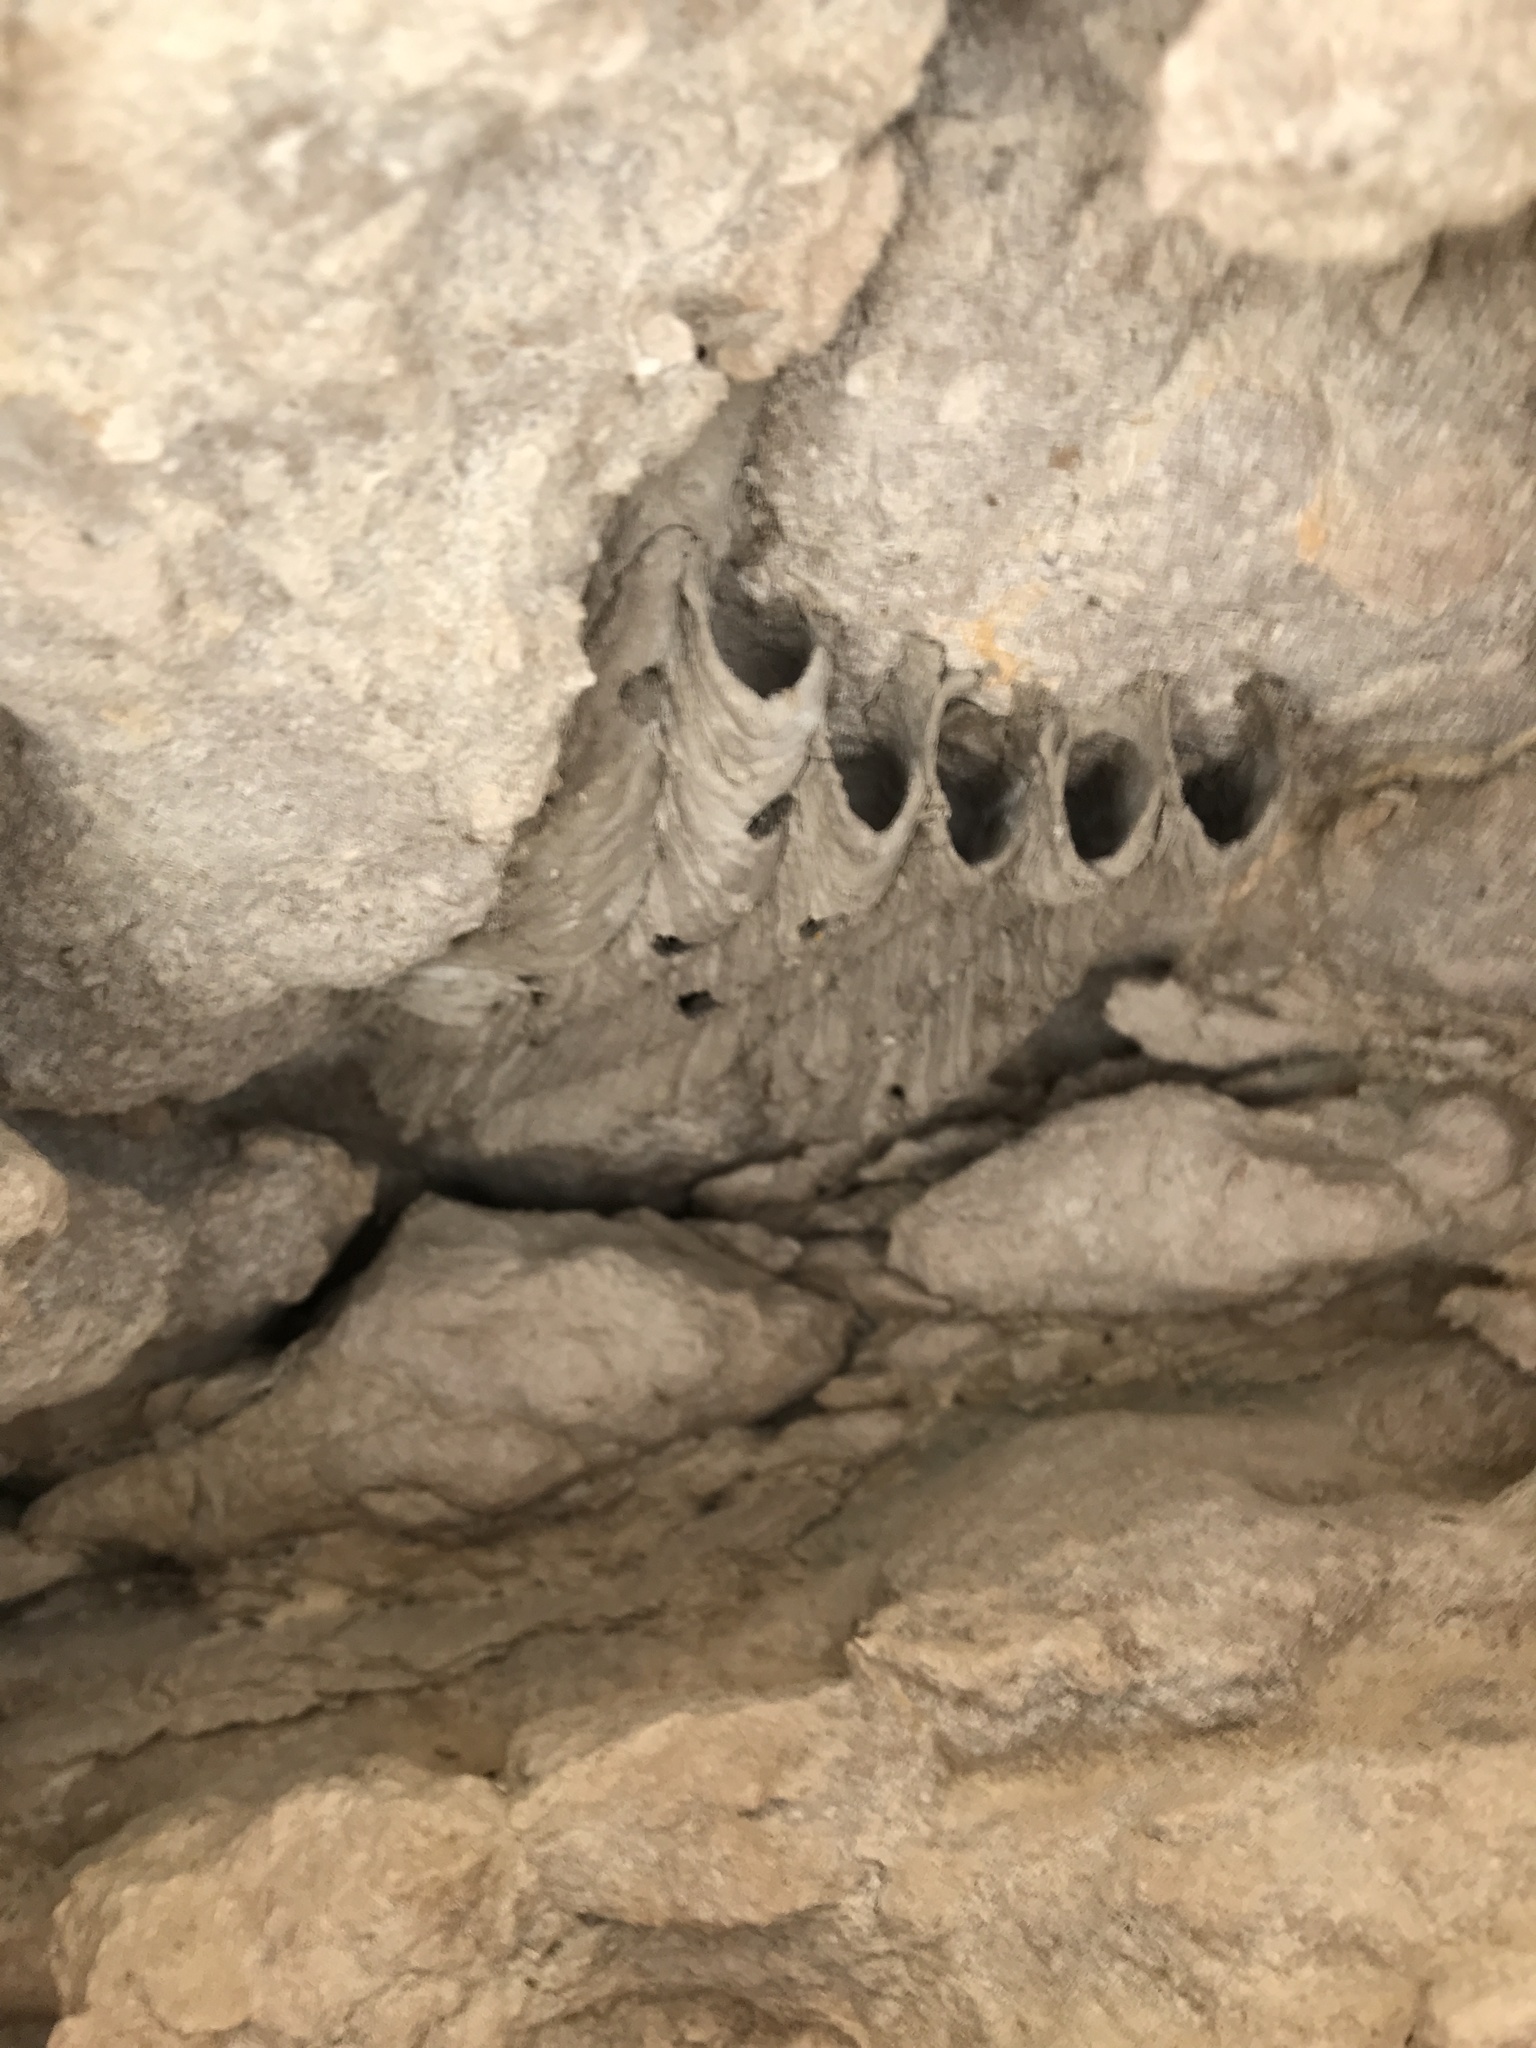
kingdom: Animalia
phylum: Arthropoda
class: Insecta
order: Hymenoptera
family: Crabronidae
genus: Trypoxylon
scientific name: Trypoxylon politum
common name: Organ-pipe mud-dauber wasp
